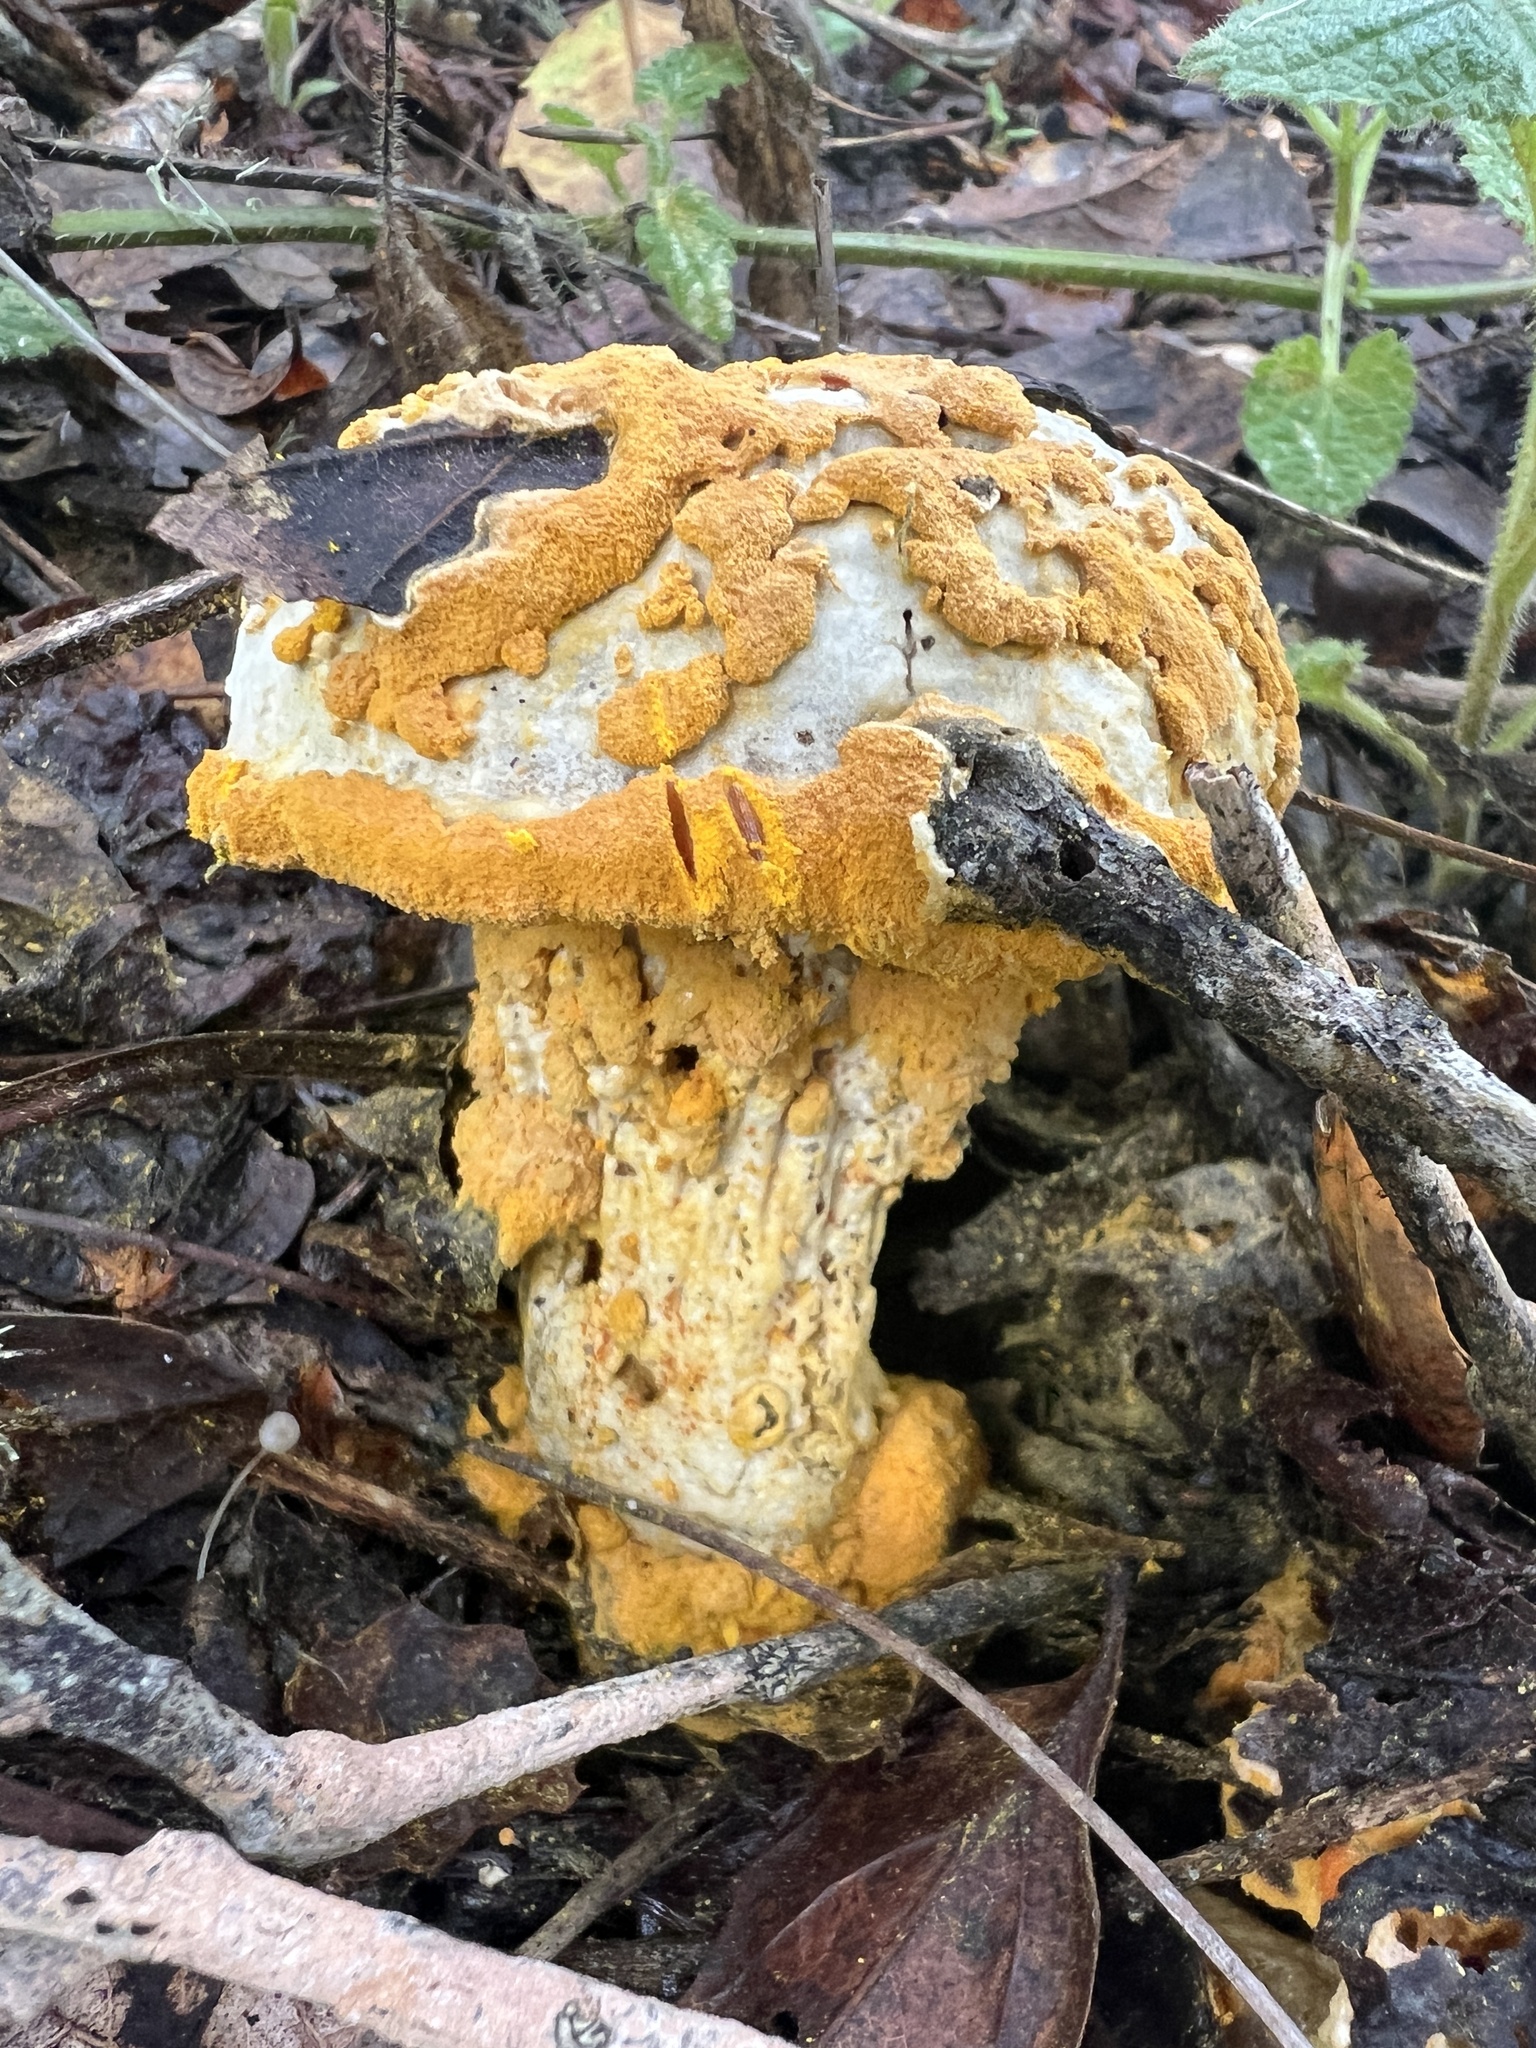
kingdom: Fungi
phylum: Ascomycota
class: Sordariomycetes
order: Hypocreales
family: Hypocreaceae
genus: Hypomyces
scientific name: Hypomyces chrysospermus
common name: Bolete mould
